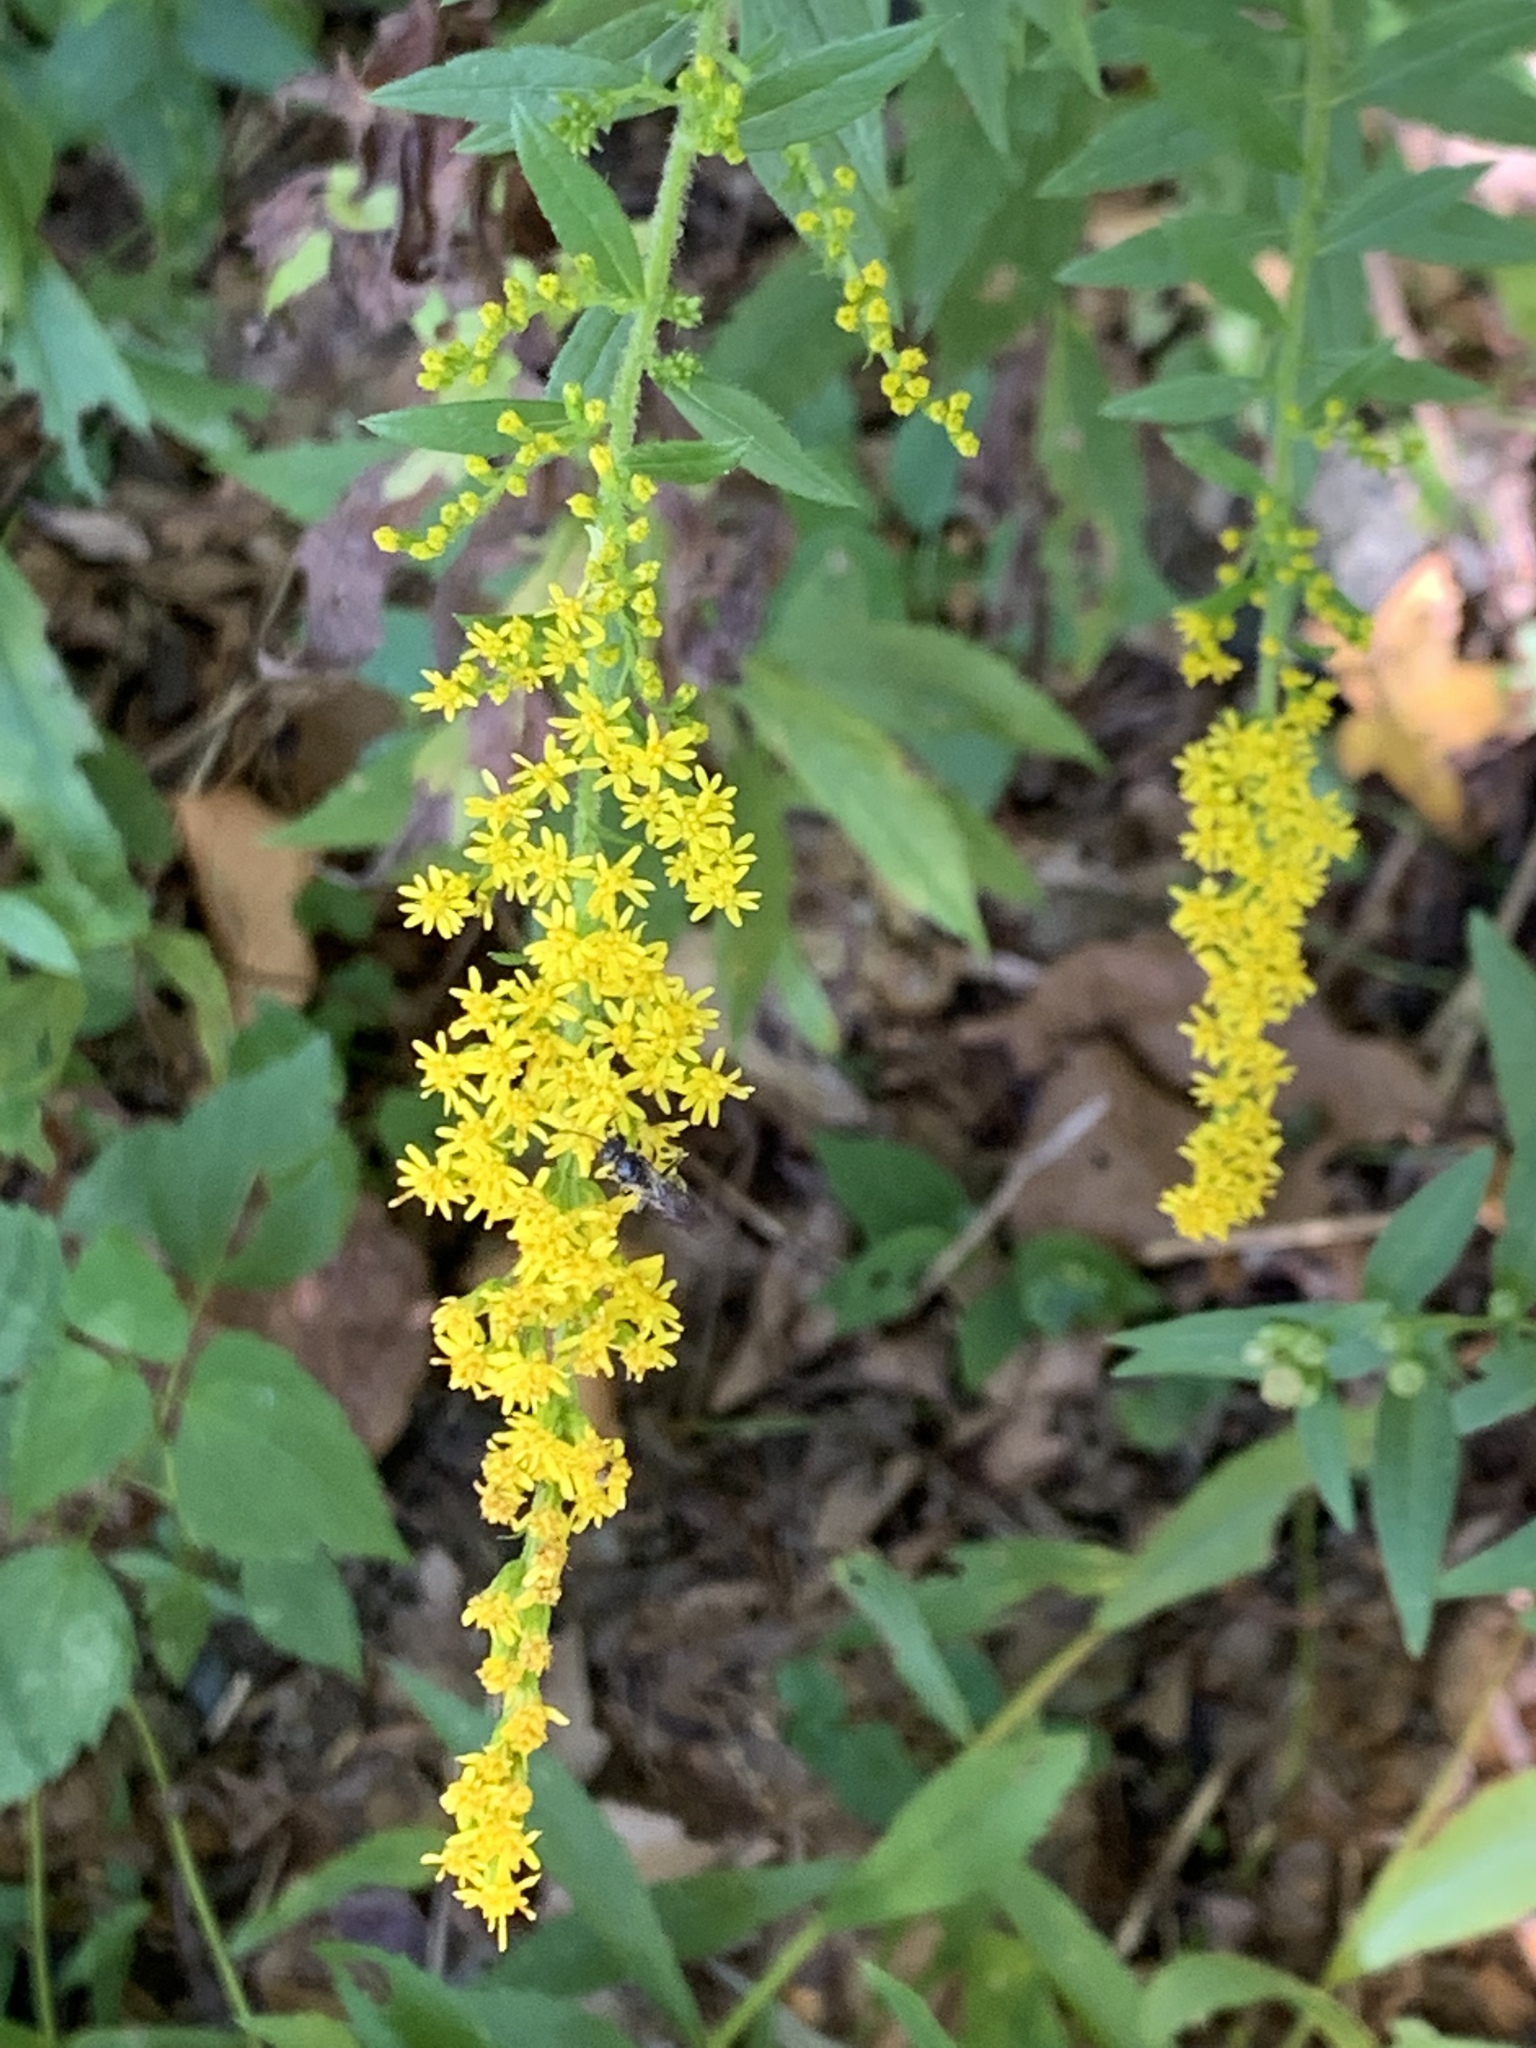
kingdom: Plantae
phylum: Tracheophyta
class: Magnoliopsida
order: Asterales
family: Asteraceae
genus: Solidago
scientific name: Solidago rugosa
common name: Rough-stemmed goldenrod
